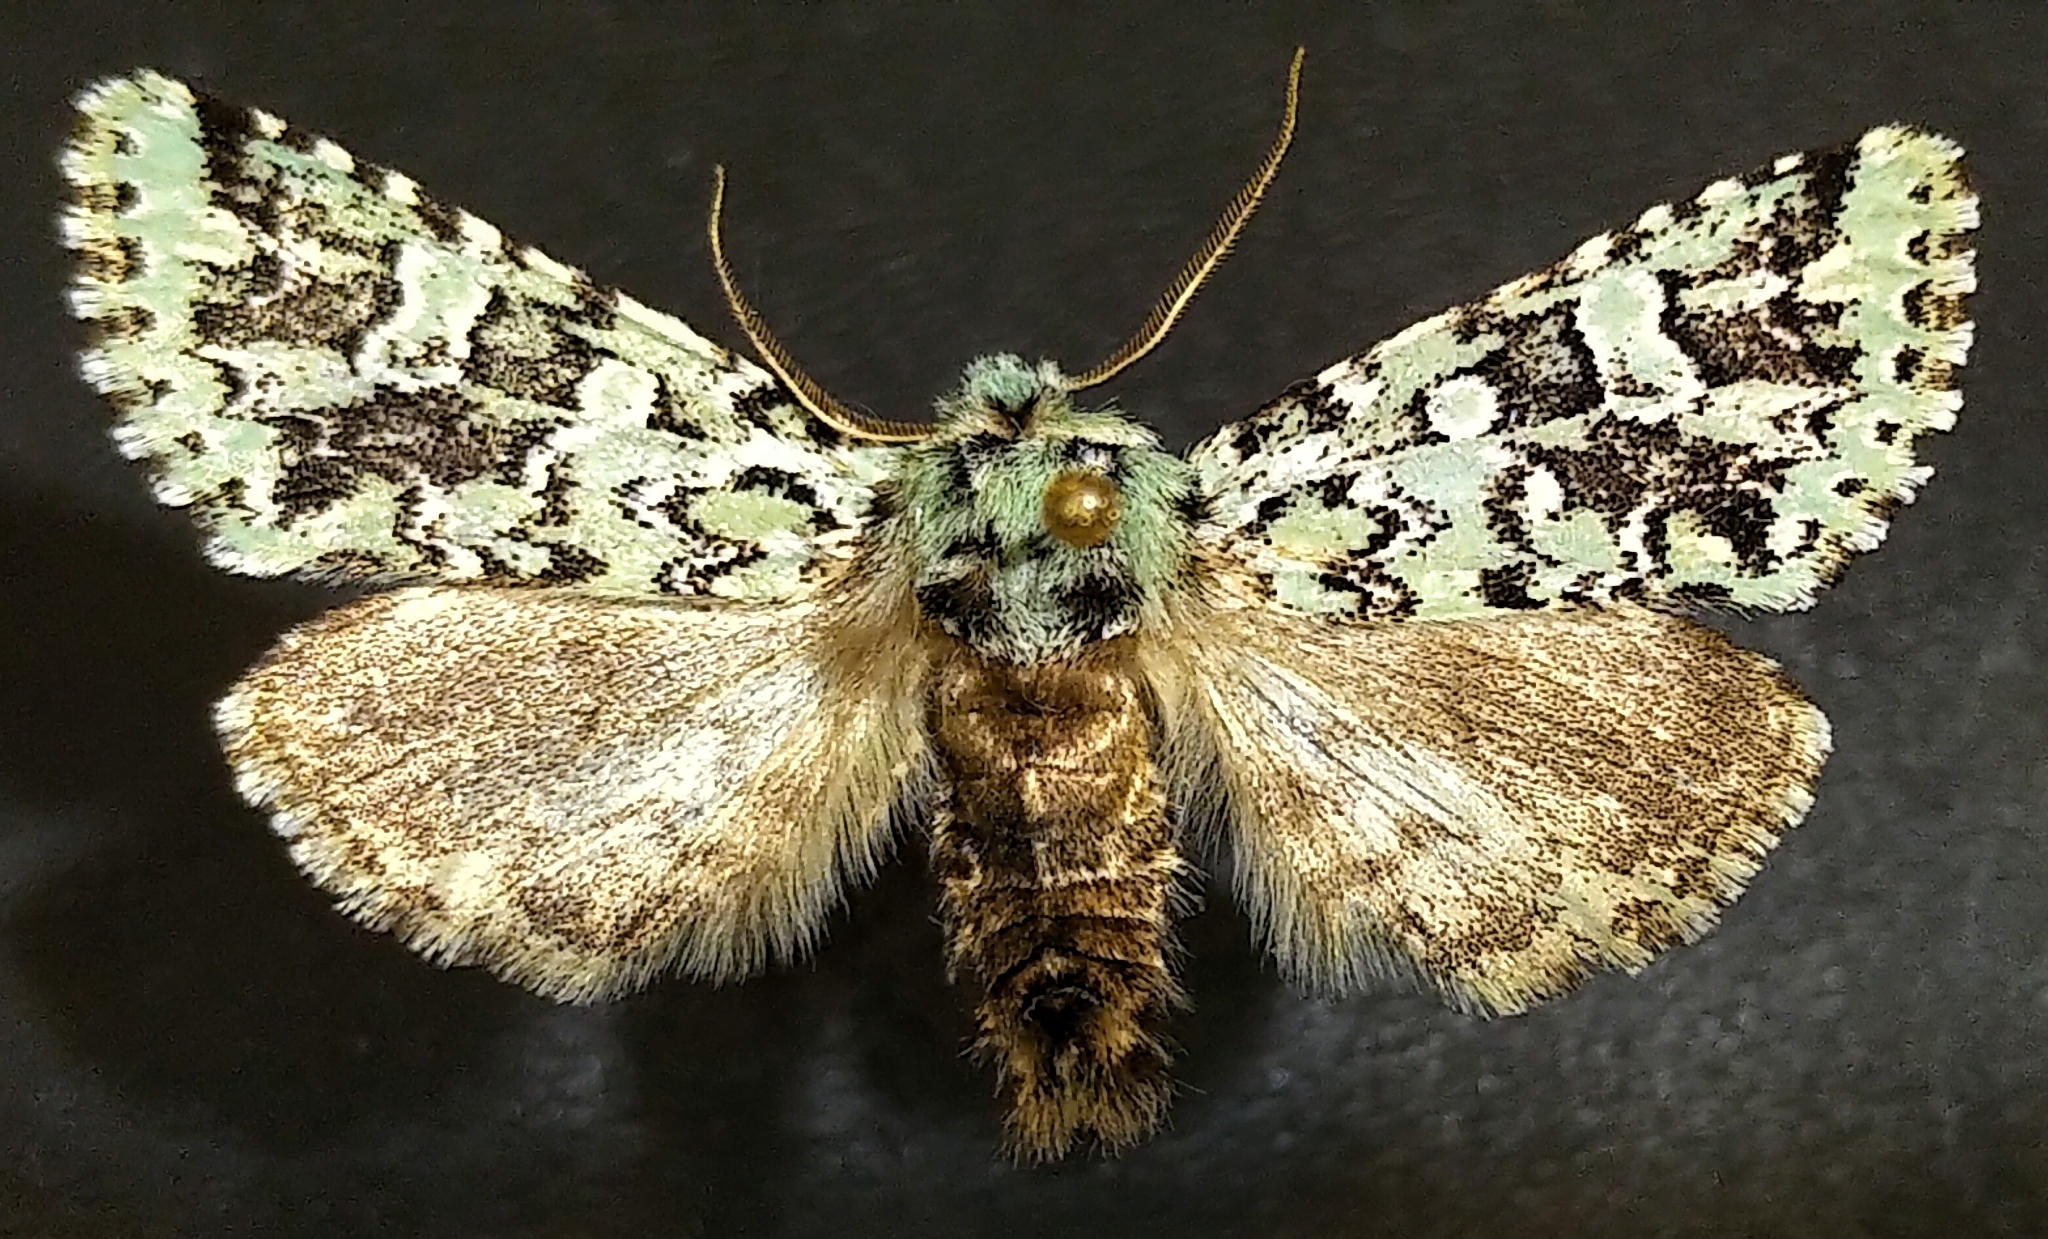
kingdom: Animalia
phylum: Arthropoda
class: Insecta
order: Lepidoptera
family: Noctuidae
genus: Feralia
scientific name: Feralia comstocki
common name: Comstock's sallow
